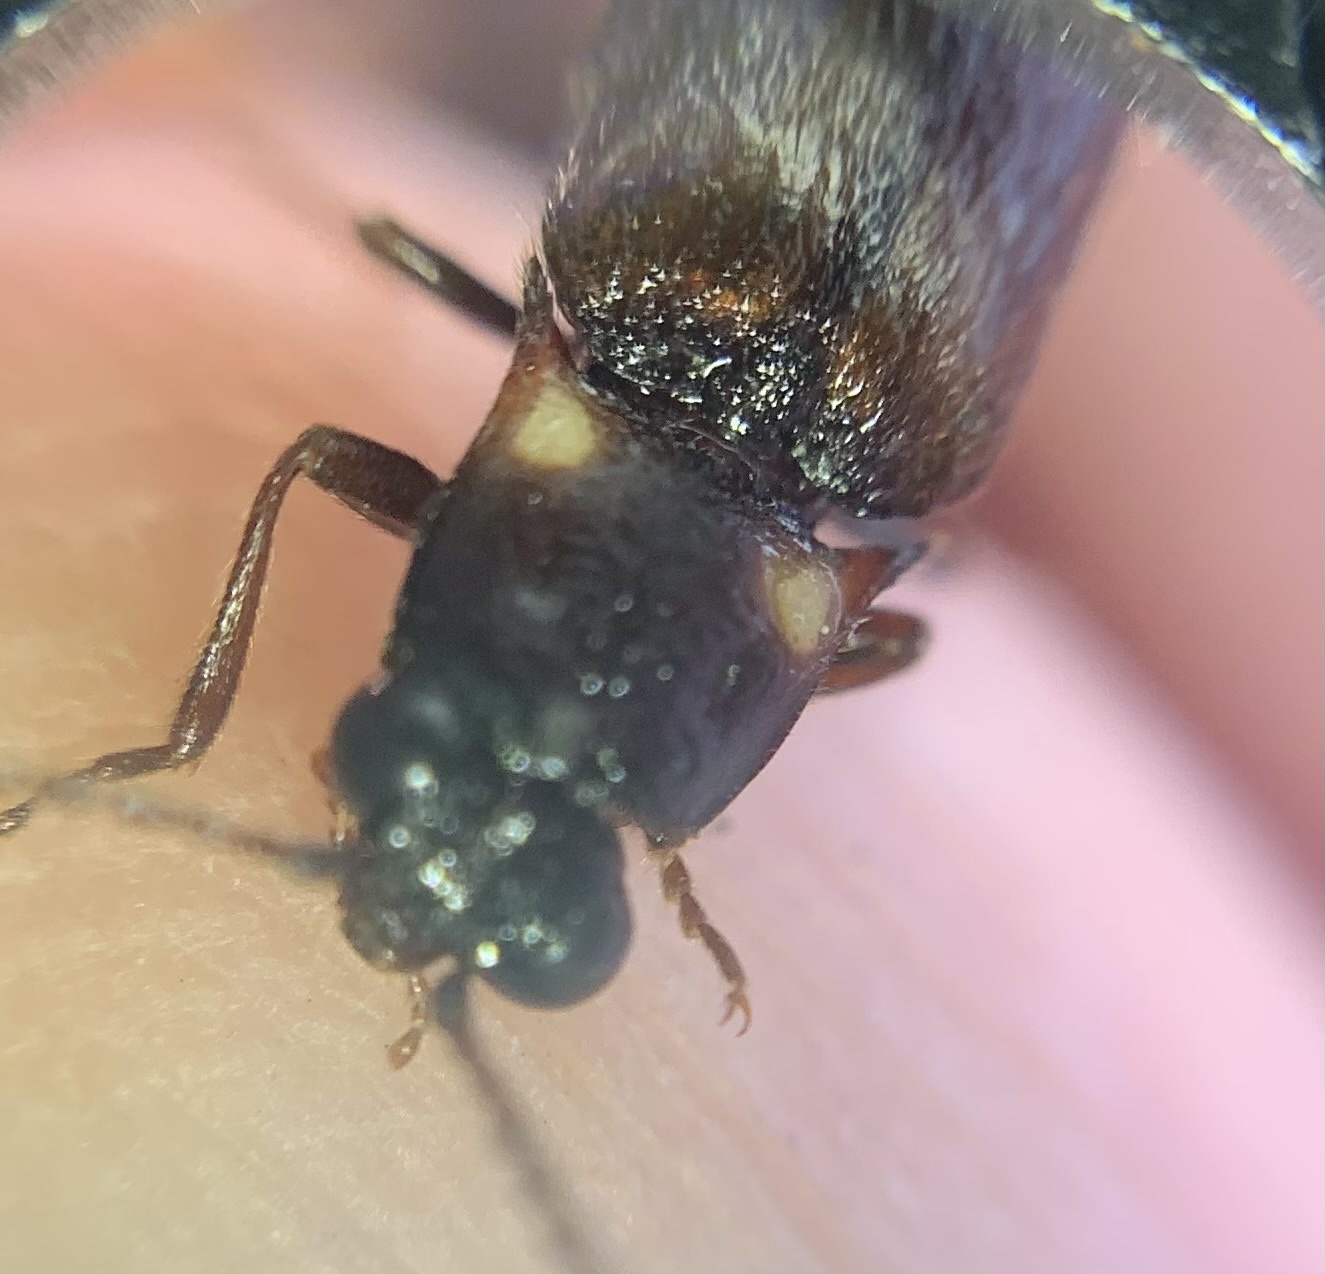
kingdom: Animalia
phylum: Arthropoda
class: Insecta
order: Coleoptera
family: Elateridae
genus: Phanophorus
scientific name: Phanophorus
